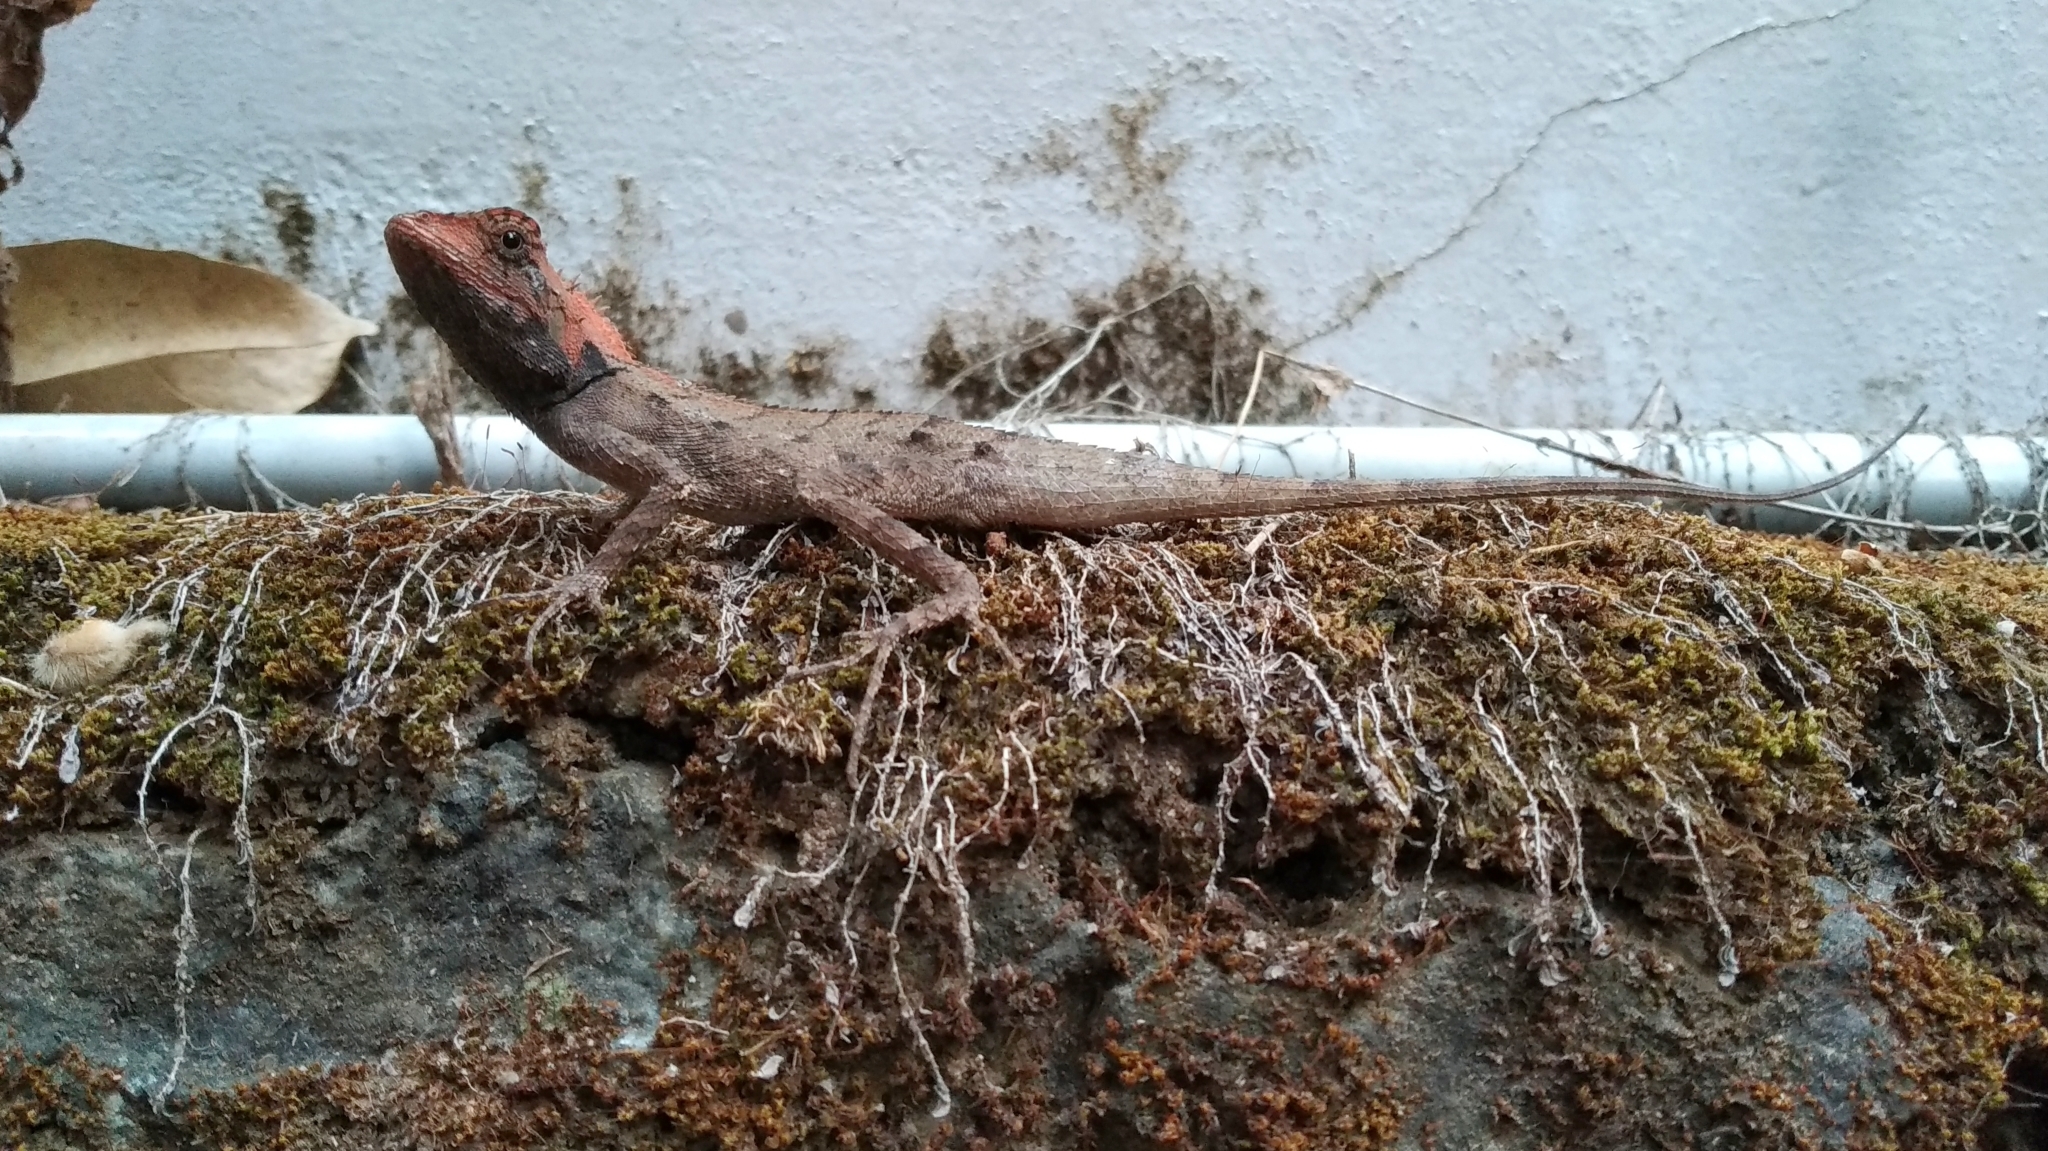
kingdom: Animalia
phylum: Chordata
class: Squamata
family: Agamidae
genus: Monilesaurus
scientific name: Monilesaurus rouxii
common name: Roux's forest lizard
